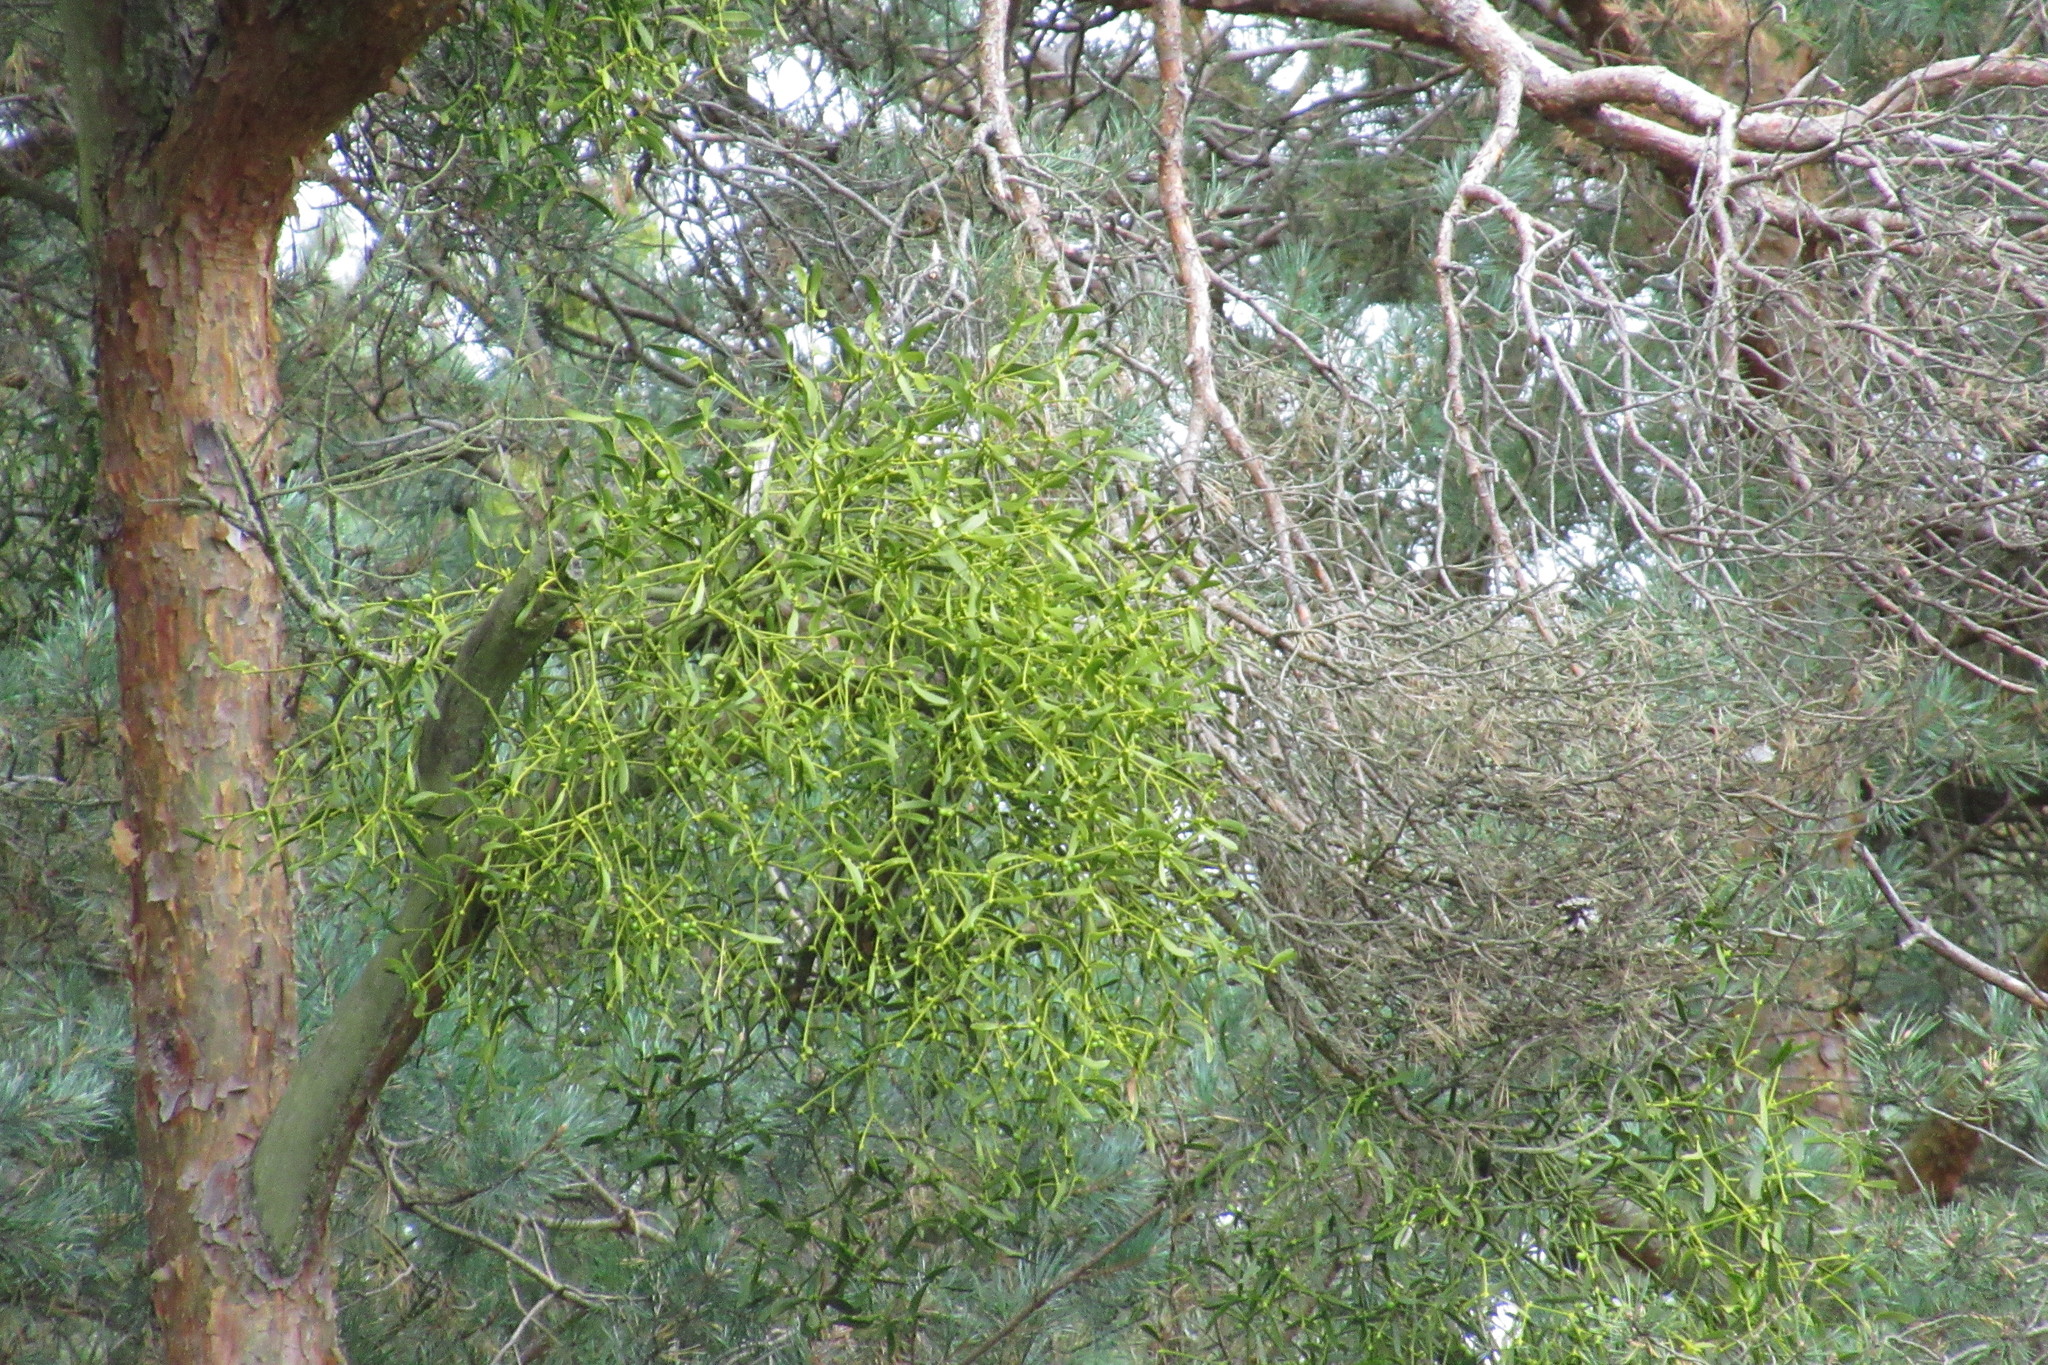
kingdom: Plantae
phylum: Tracheophyta
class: Magnoliopsida
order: Santalales
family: Viscaceae
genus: Viscum
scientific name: Viscum laxum
